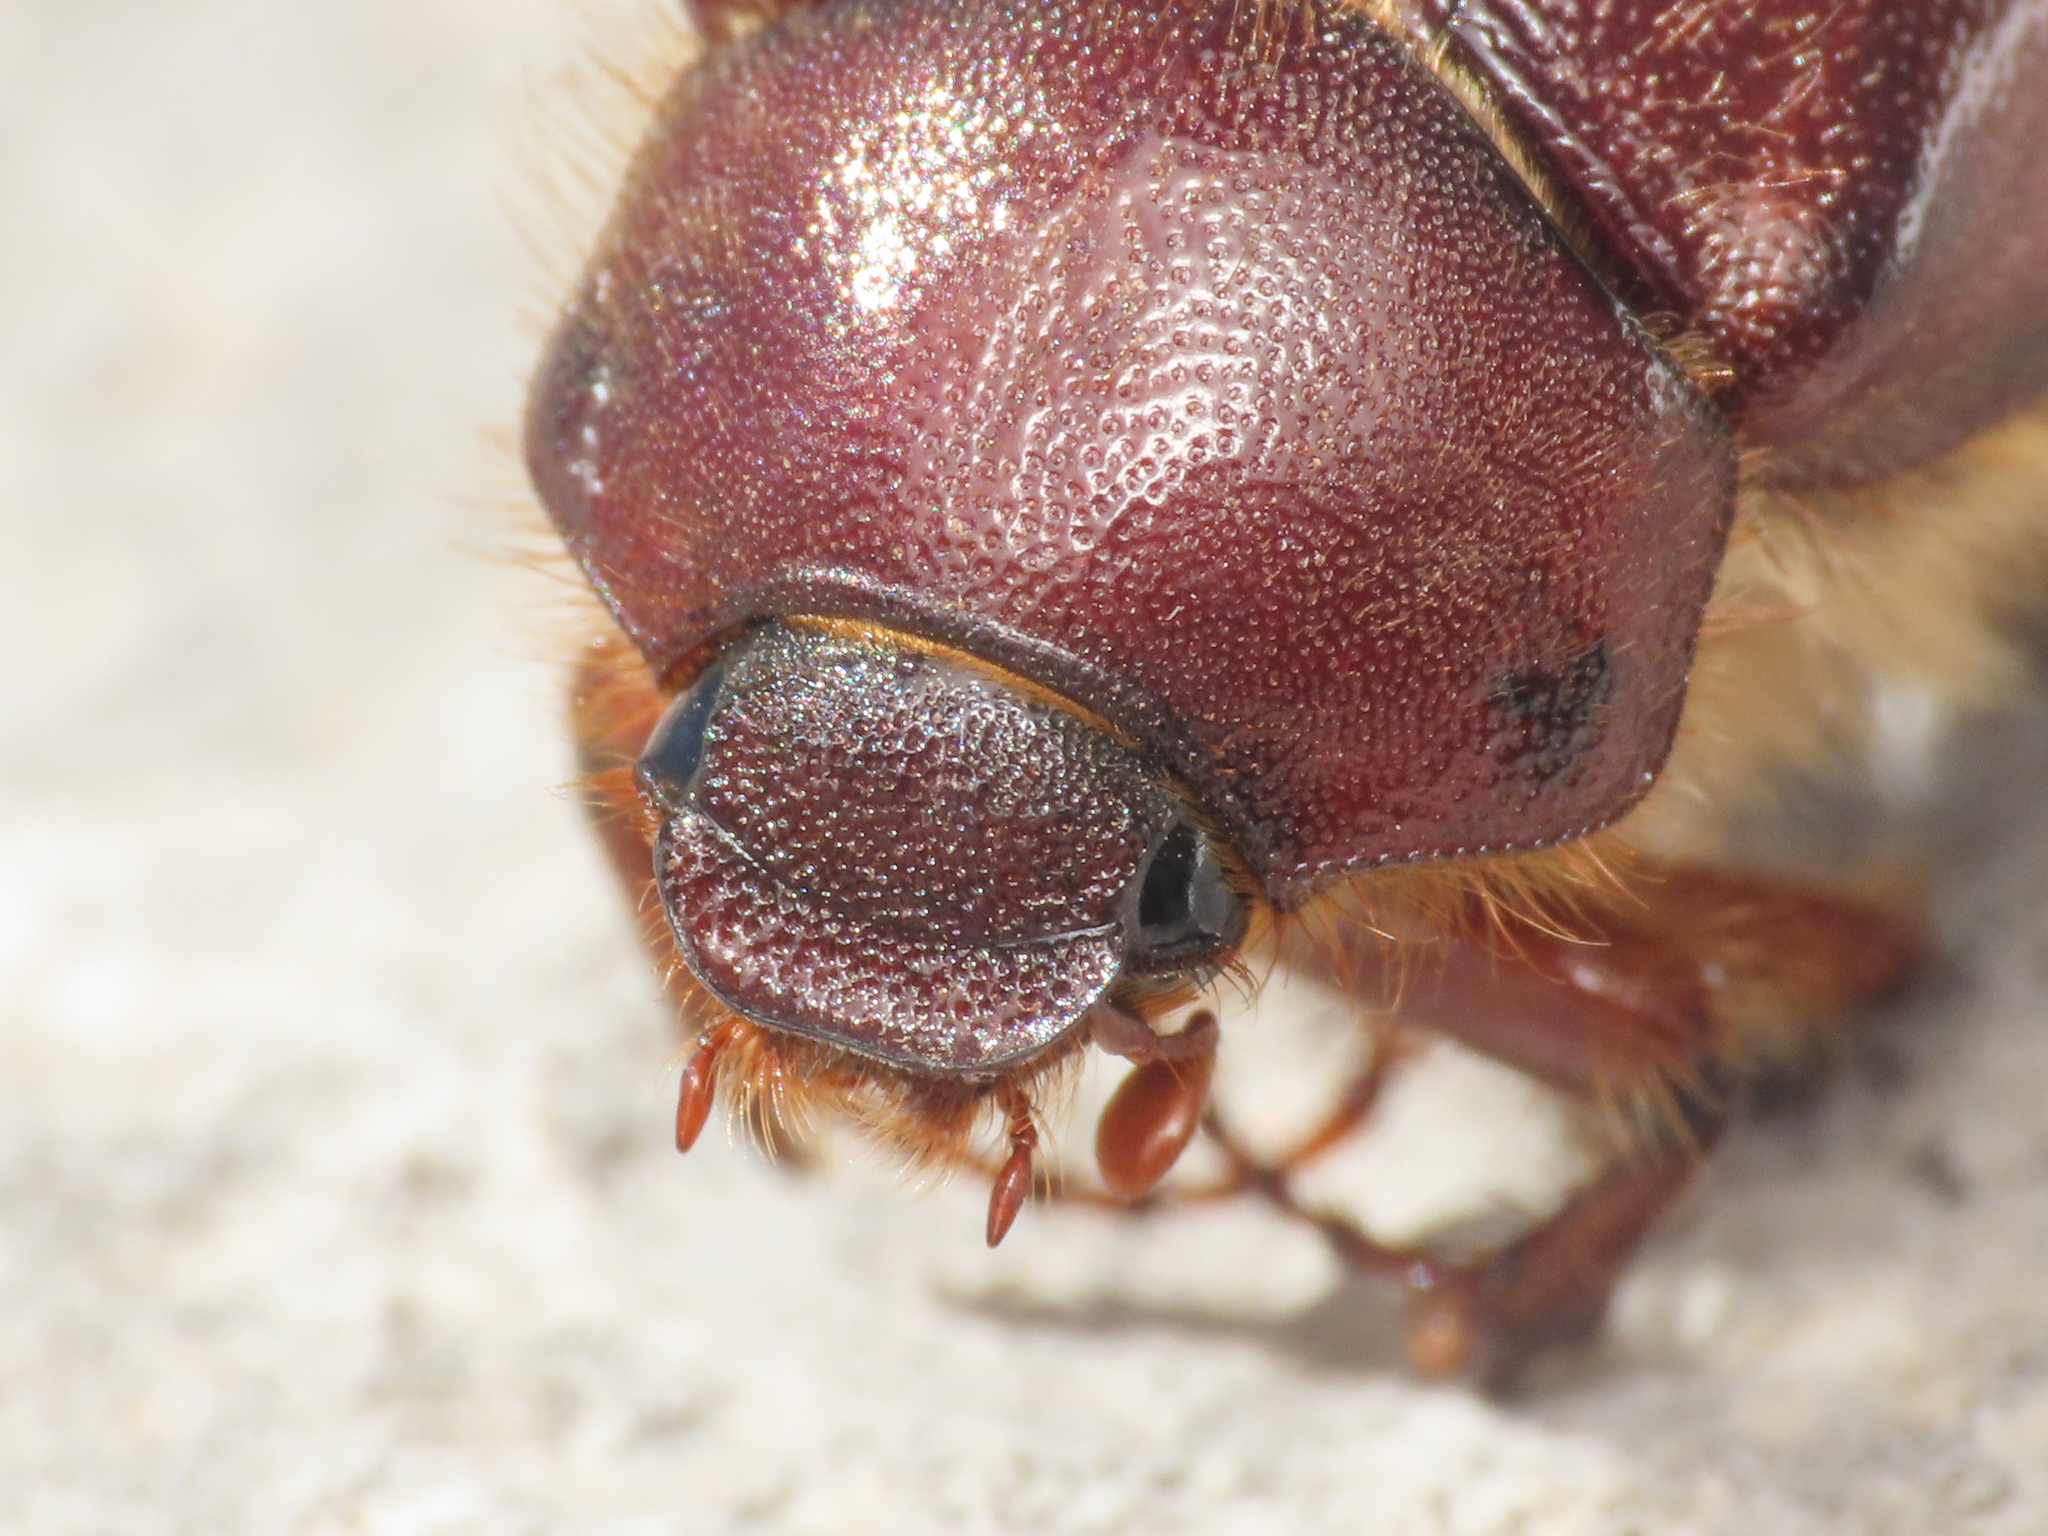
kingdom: Animalia
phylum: Arthropoda
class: Insecta
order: Coleoptera
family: Scarabaeidae
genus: Holochelus
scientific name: Holochelus fraxinicola
